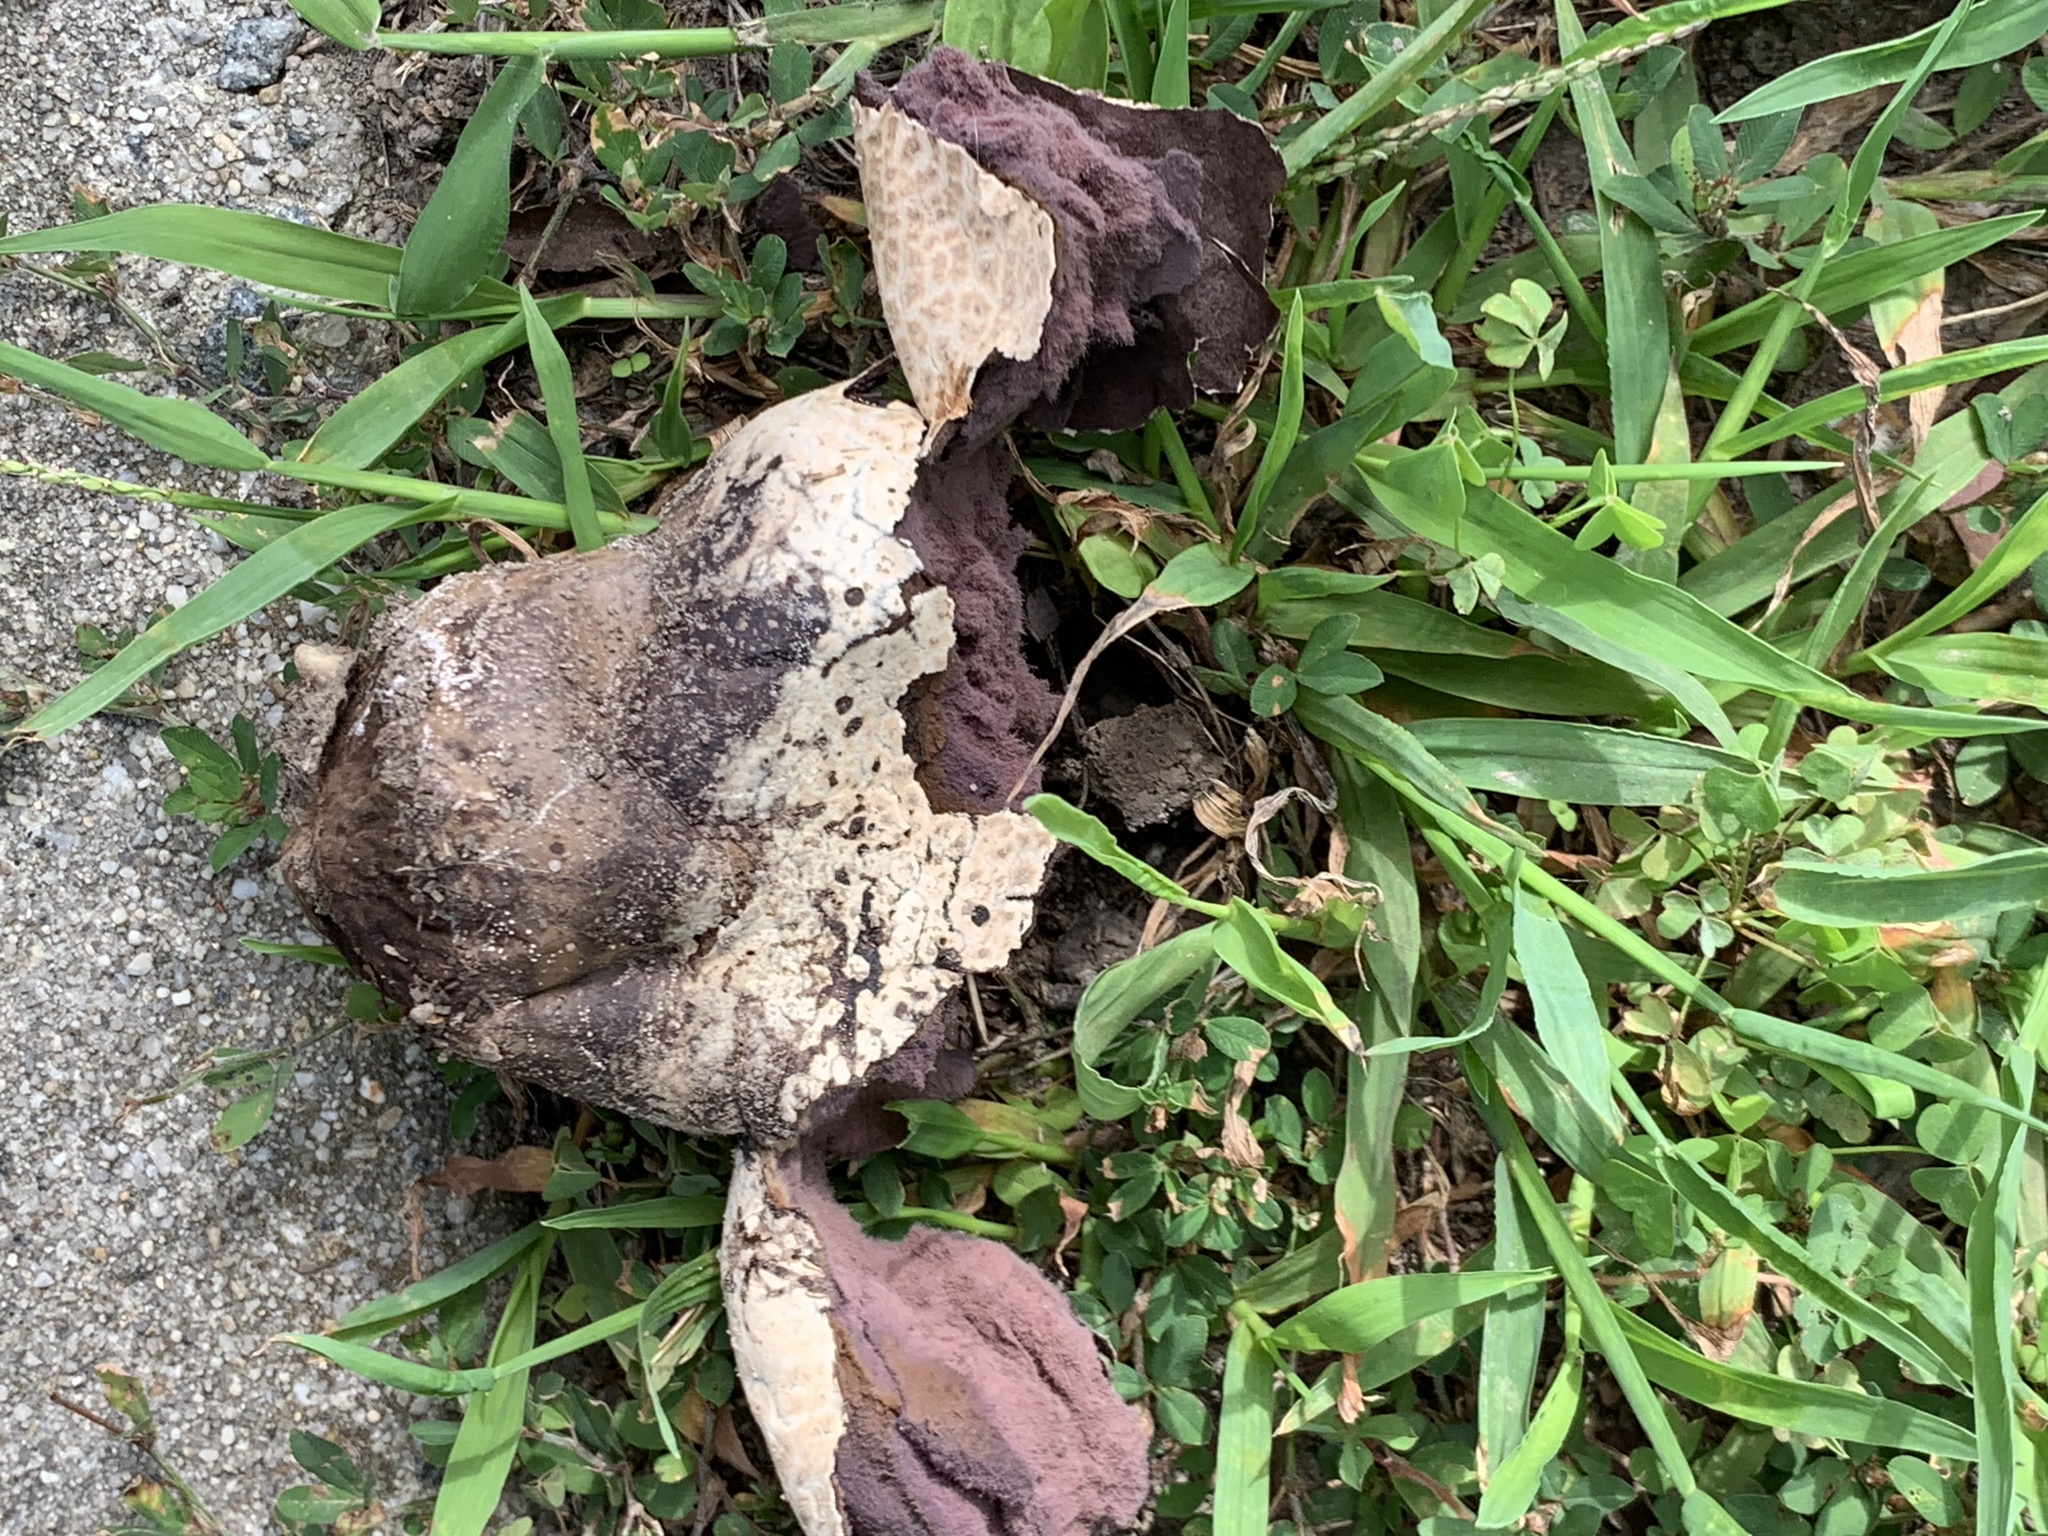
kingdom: Fungi
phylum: Basidiomycota
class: Agaricomycetes
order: Agaricales
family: Lycoperdaceae
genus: Calvatia
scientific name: Calvatia cyathiformis
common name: Purple-spored puffball
